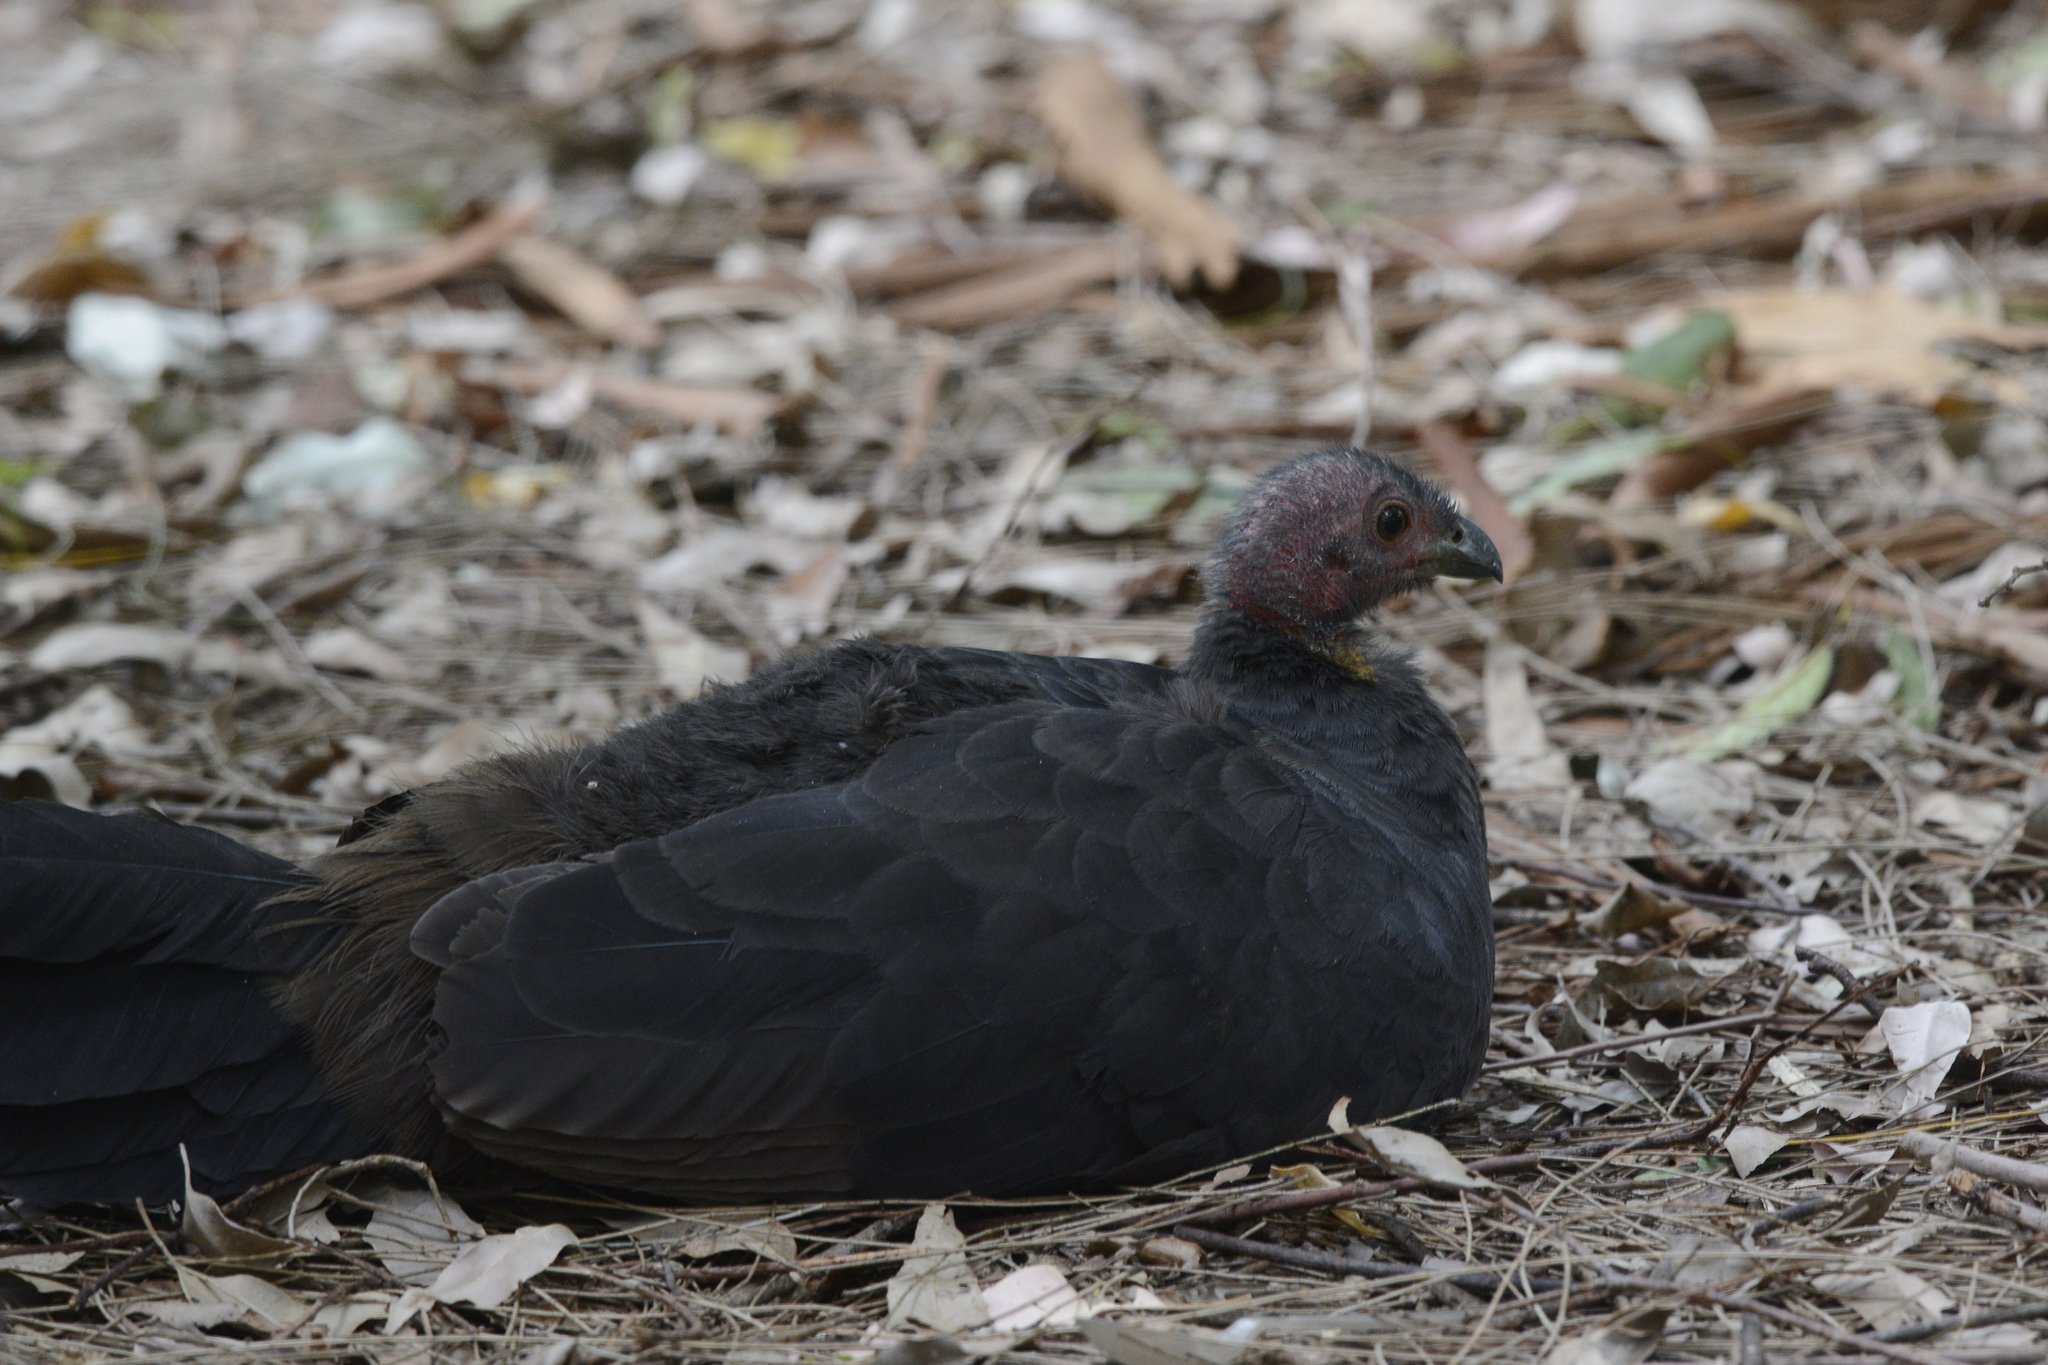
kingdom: Animalia
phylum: Chordata
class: Aves
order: Galliformes
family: Megapodiidae
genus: Alectura
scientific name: Alectura lathami
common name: Australian brushturkey
